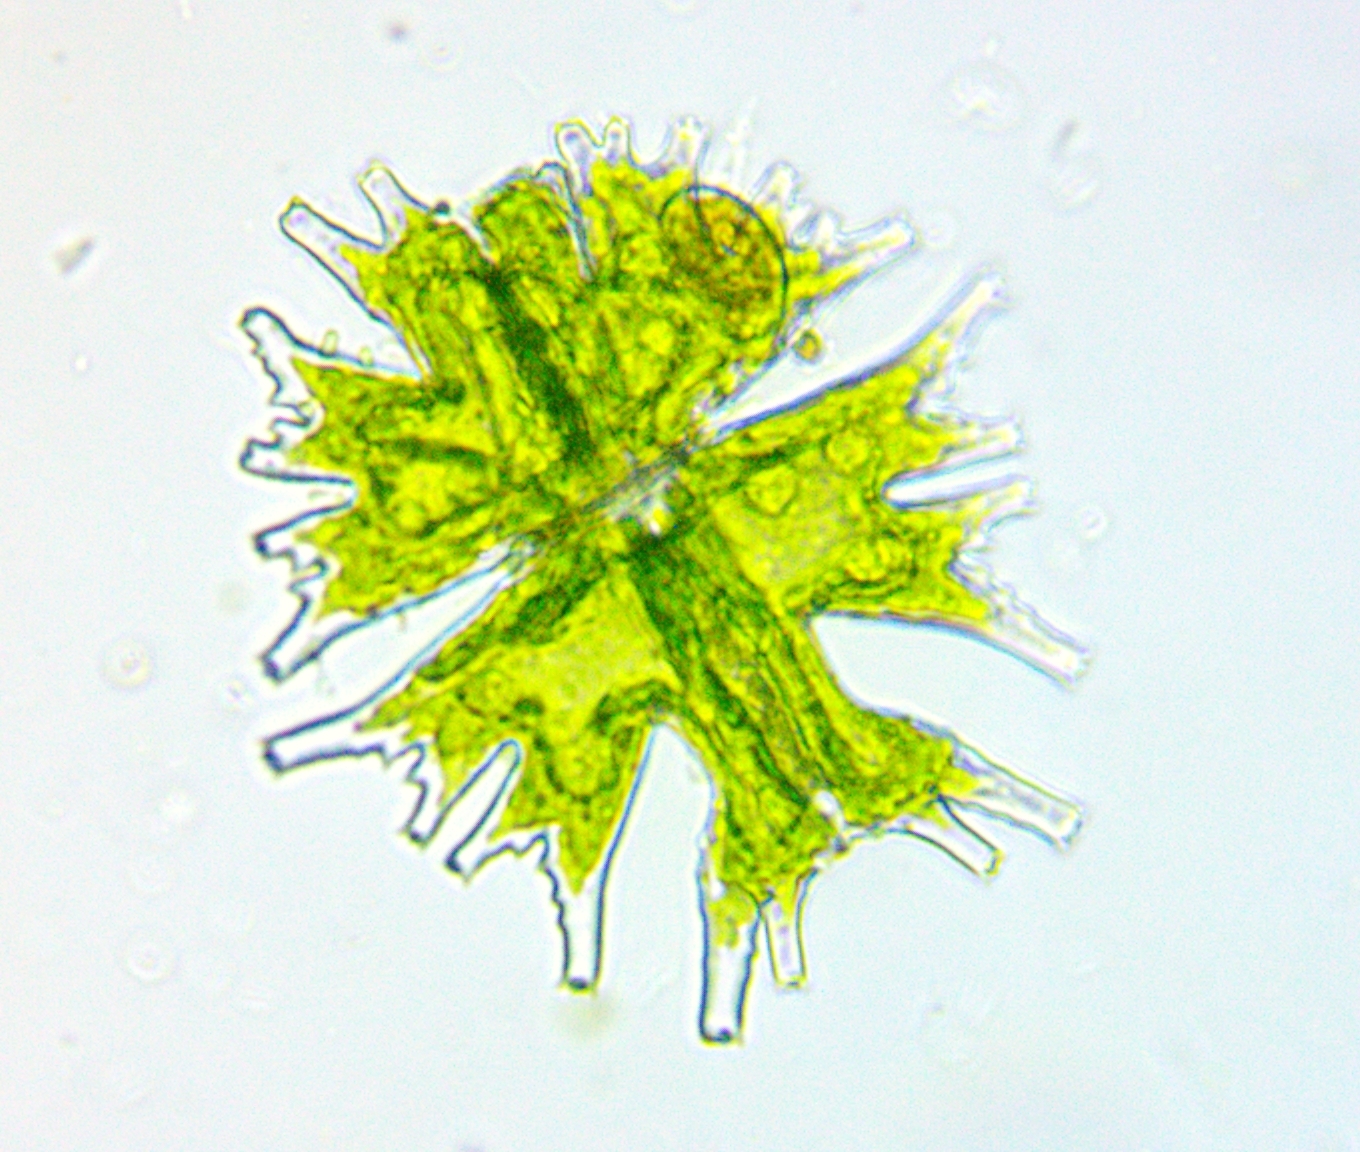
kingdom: Plantae
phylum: Charophyta
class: Conjugatophyceae
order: Desmidiales
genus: Micrasterias
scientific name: Micrasterias mahabuleshwarensis
